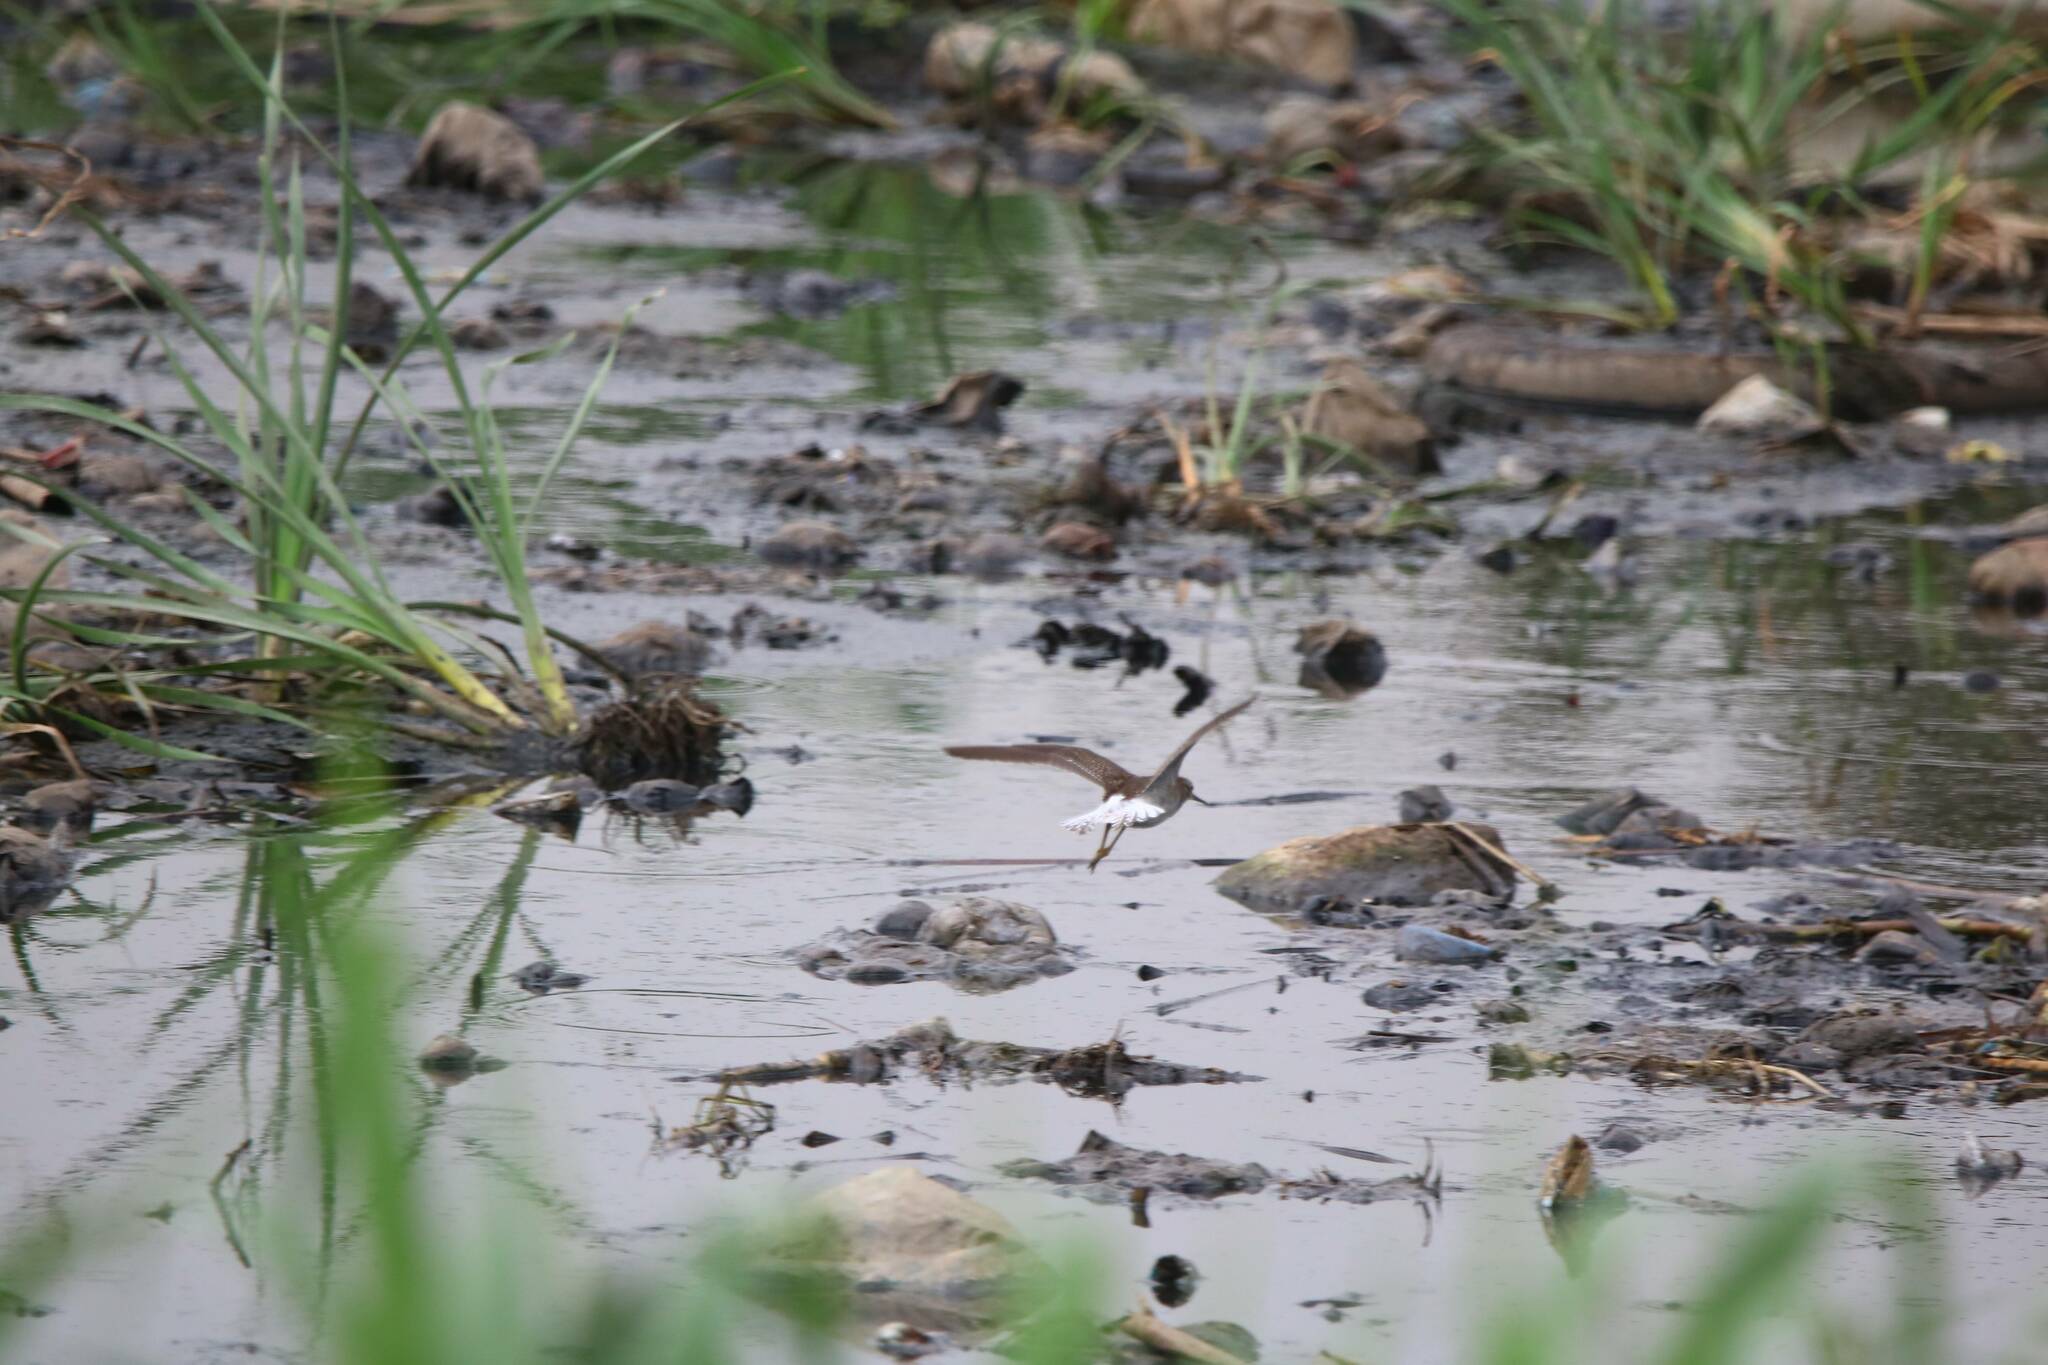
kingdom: Animalia
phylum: Chordata
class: Aves
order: Charadriiformes
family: Scolopacidae
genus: Tringa
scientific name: Tringa glareola
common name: Wood sandpiper
